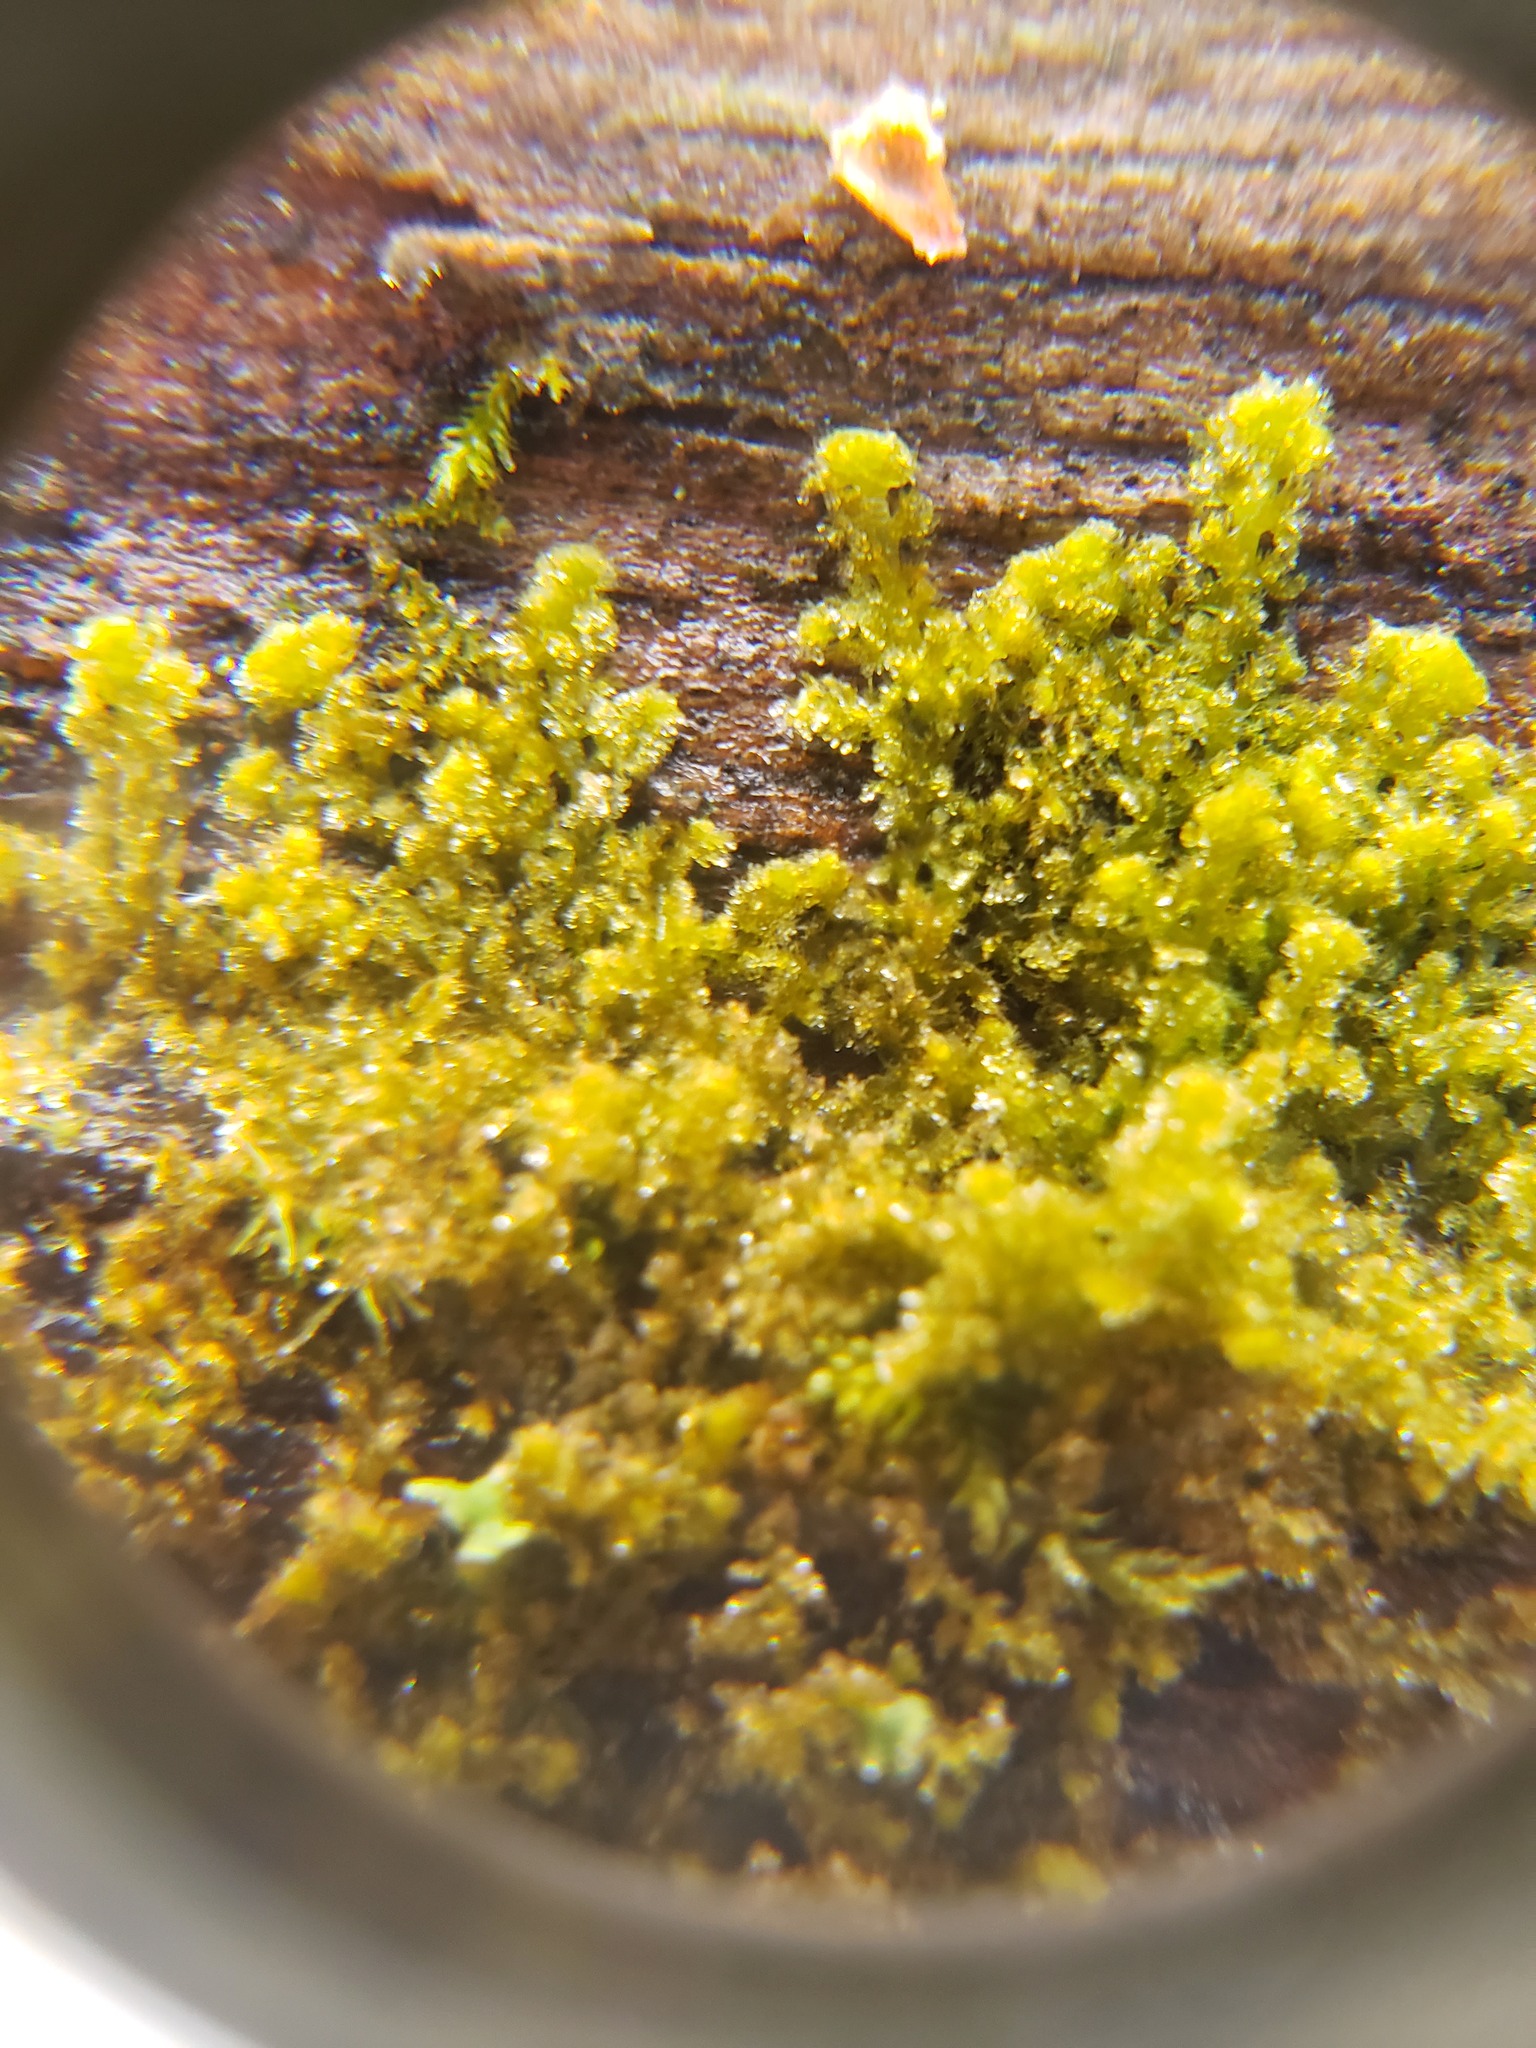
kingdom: Plantae
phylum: Marchantiophyta
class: Jungermanniopsida
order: Ptilidiales
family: Ptilidiaceae
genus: Ptilidium
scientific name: Ptilidium pulcherrimum
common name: Tree fringewort
